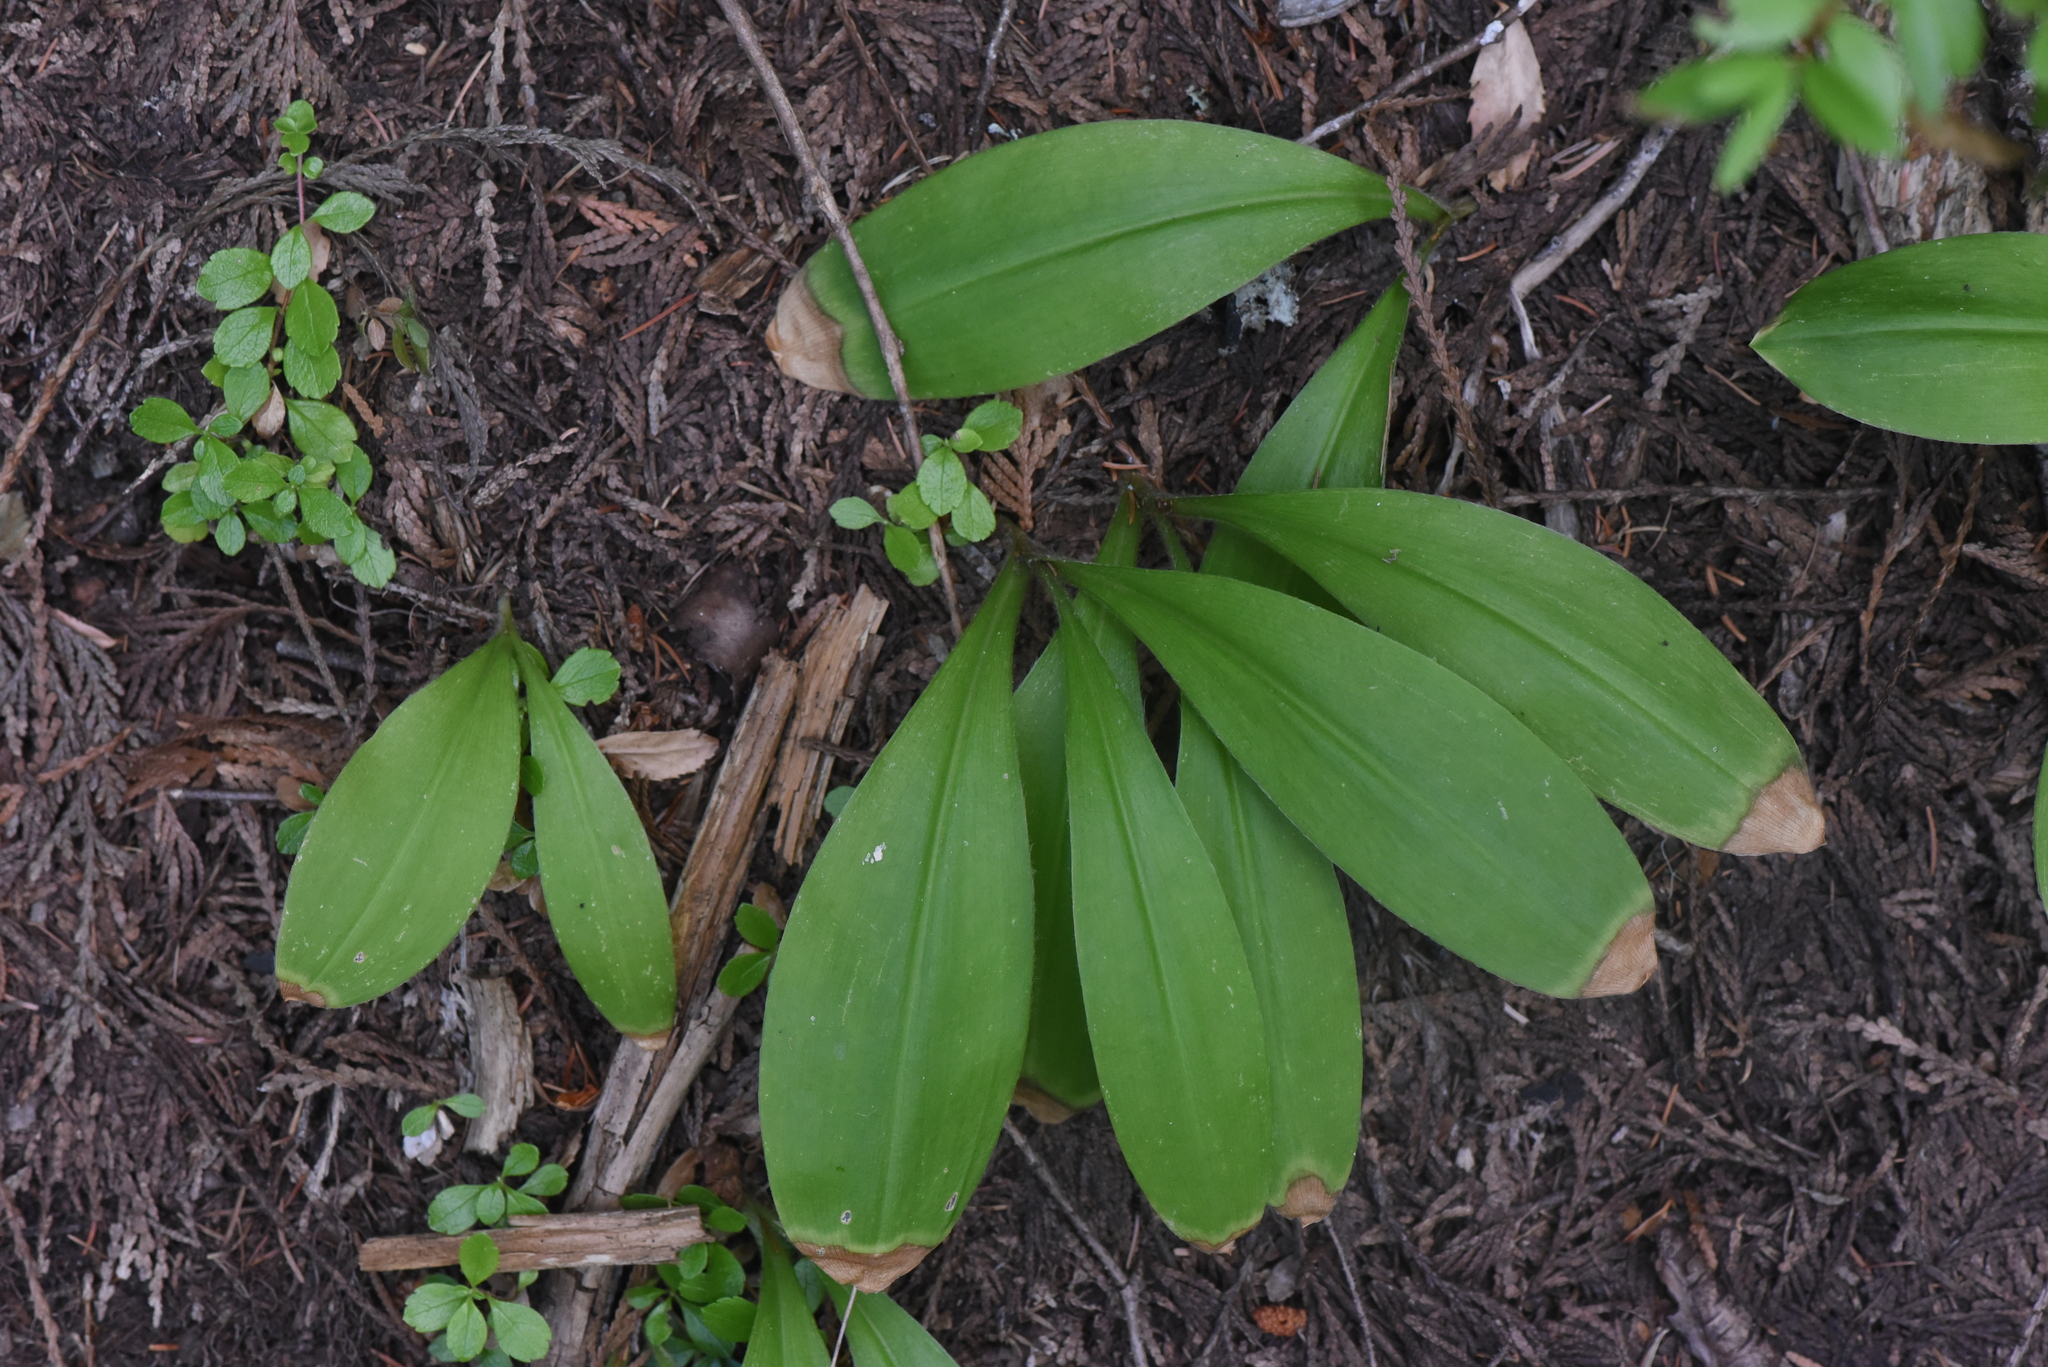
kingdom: Plantae
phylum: Tracheophyta
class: Liliopsida
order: Liliales
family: Liliaceae
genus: Clintonia
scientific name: Clintonia uniflora
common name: Queen's cup
